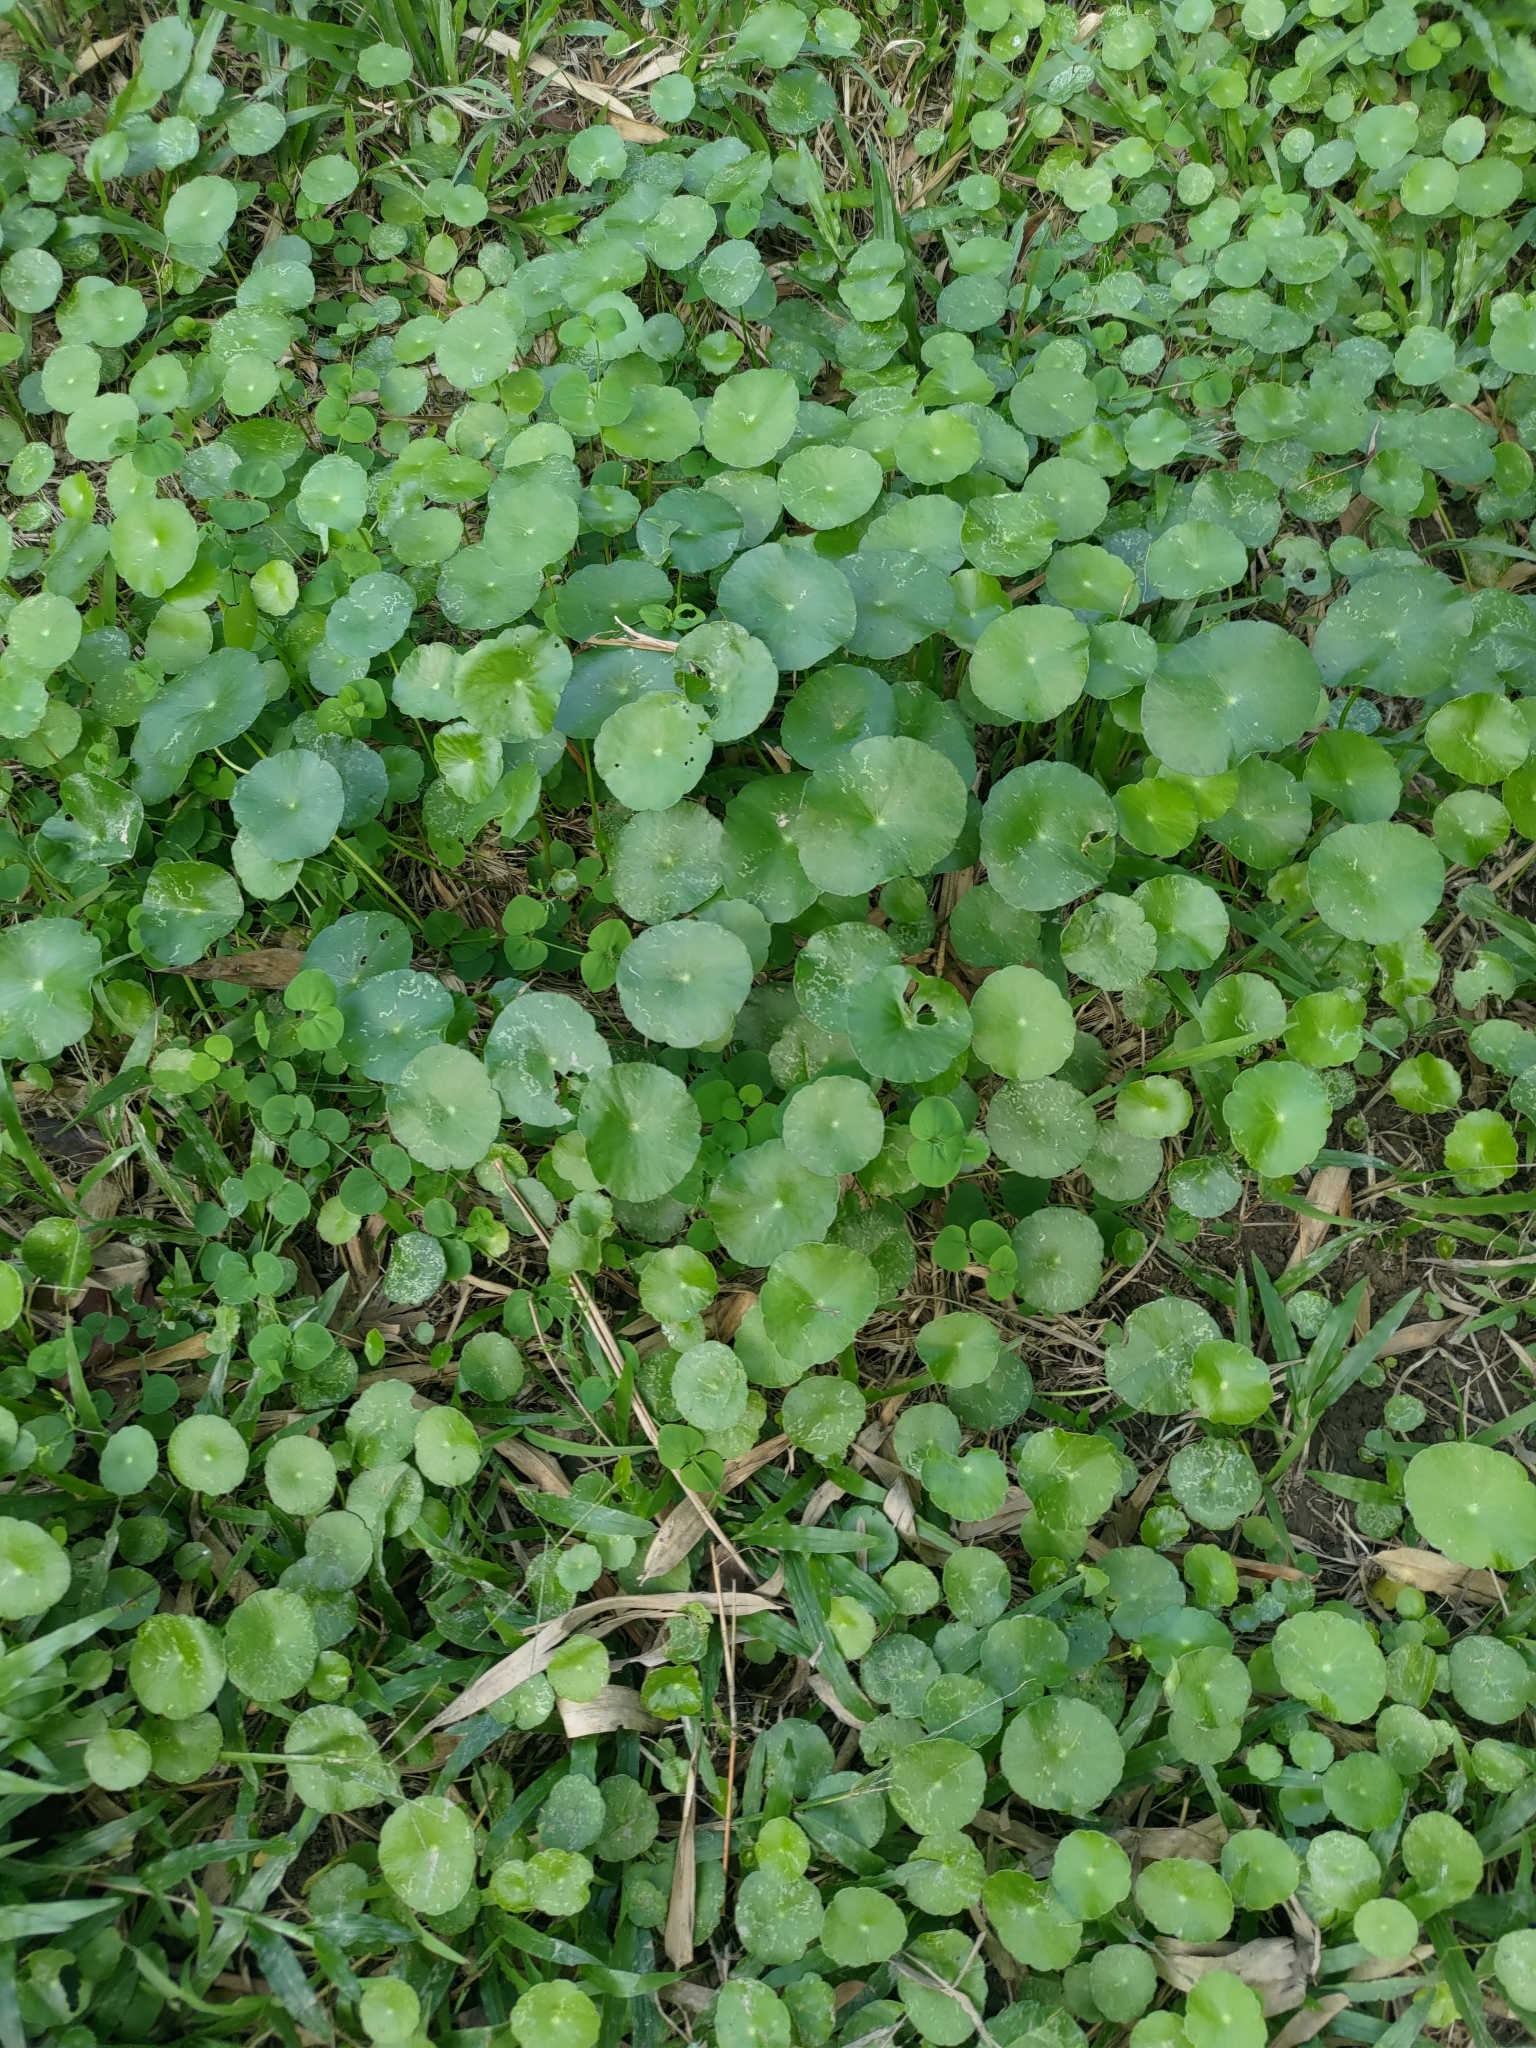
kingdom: Plantae
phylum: Tracheophyta
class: Magnoliopsida
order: Apiales
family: Araliaceae
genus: Hydrocotyle
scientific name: Hydrocotyle verticillata
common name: Whorled marshpennywort
